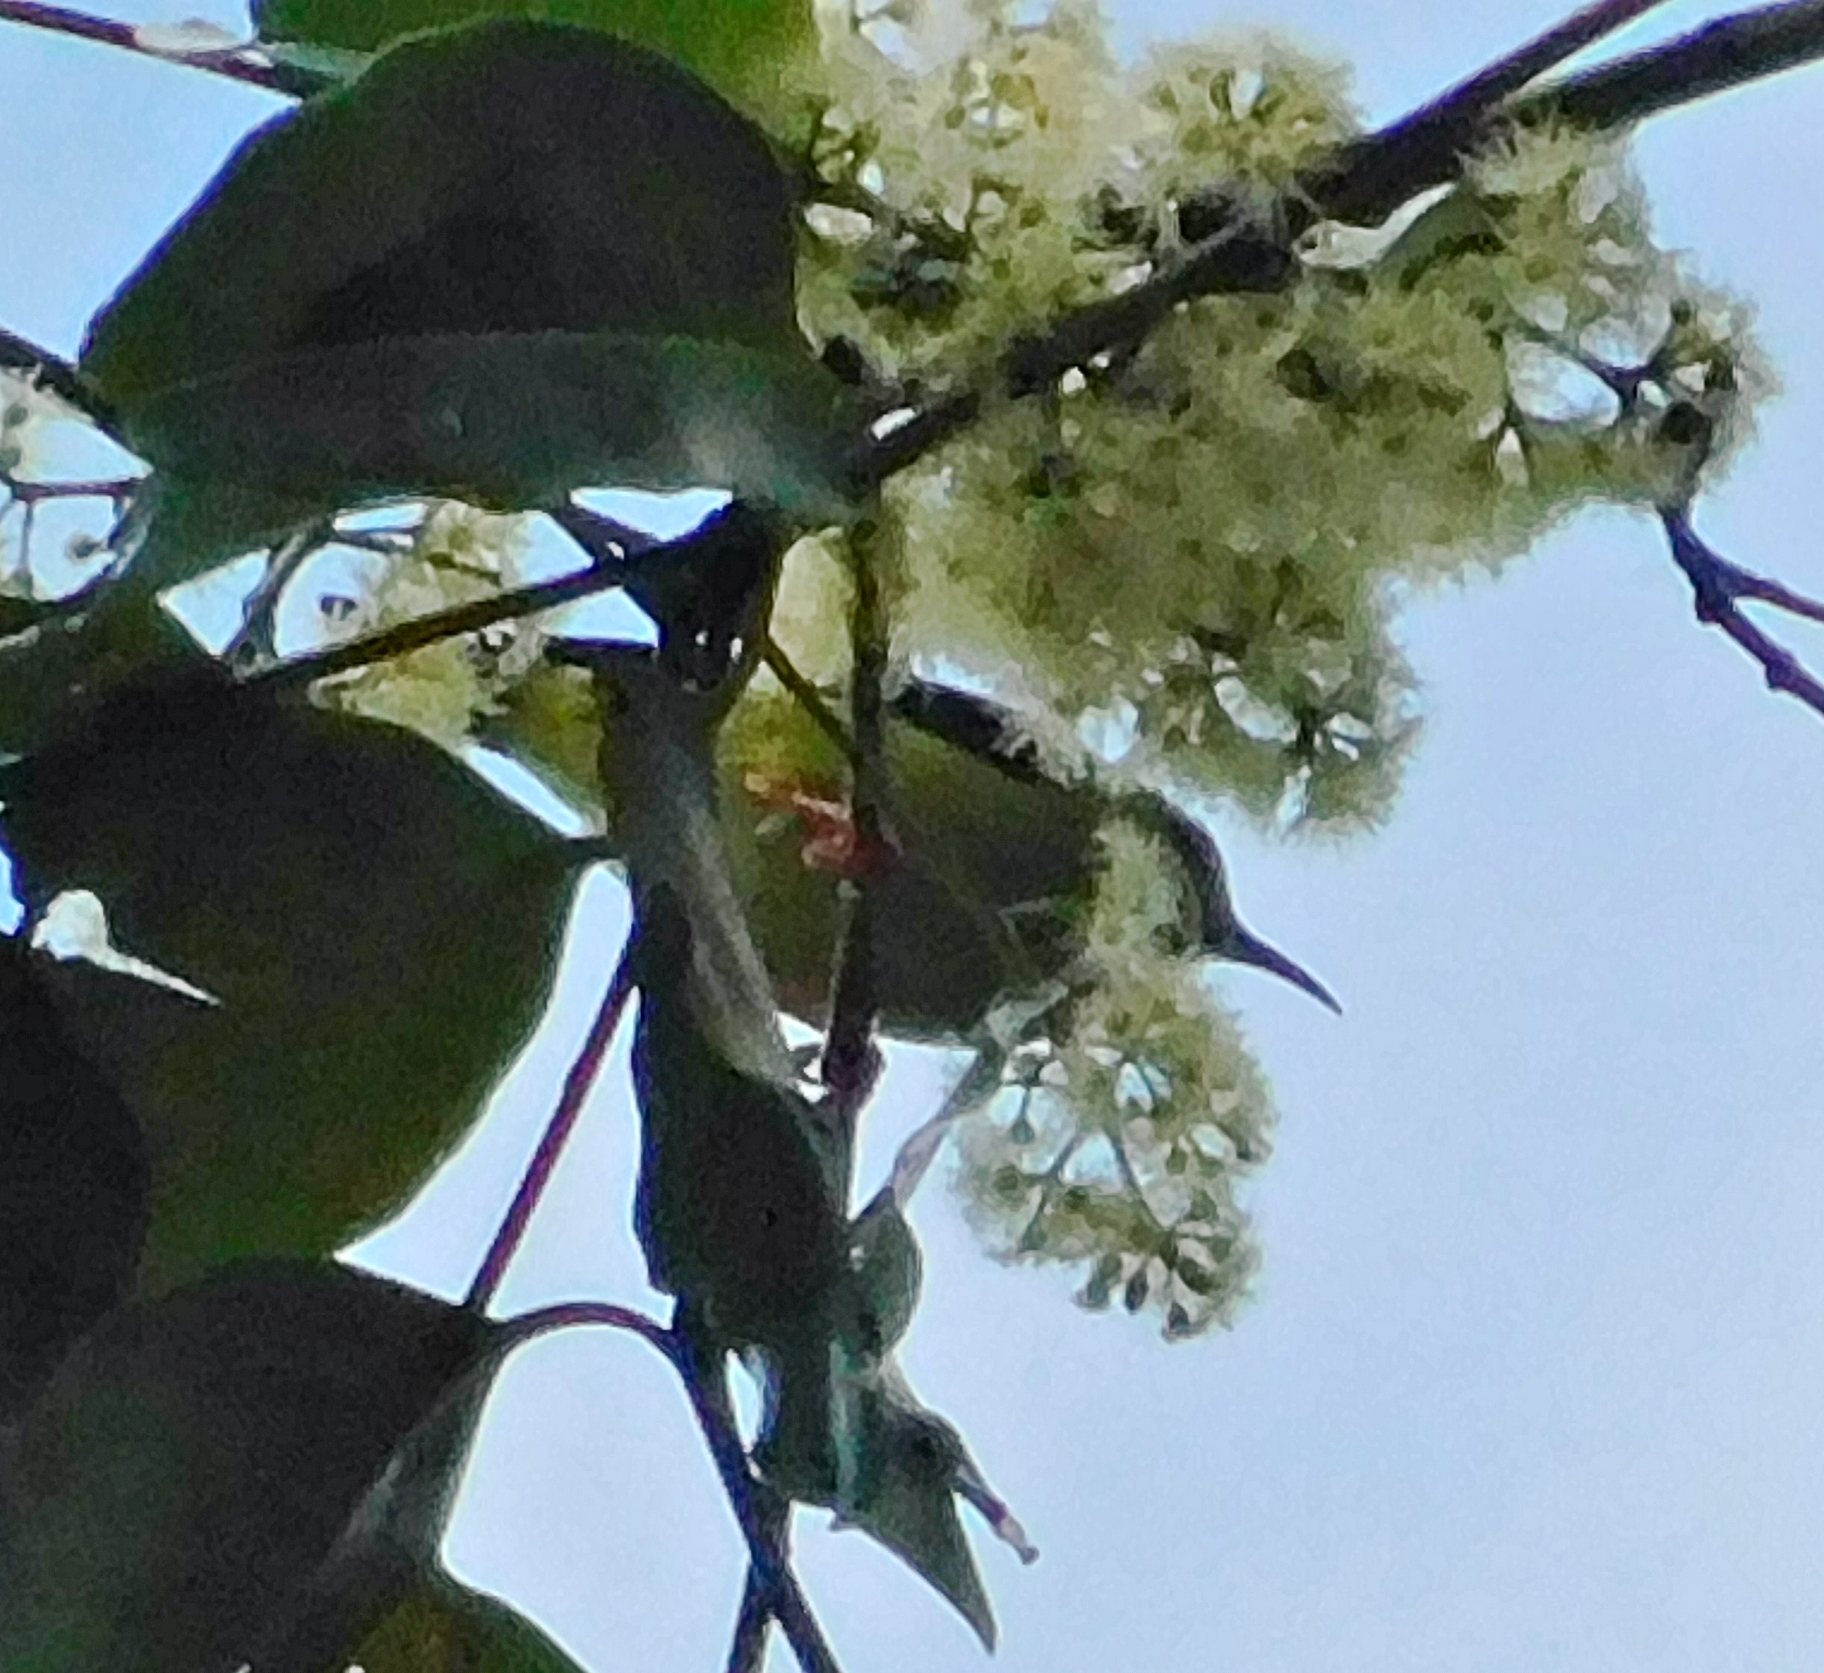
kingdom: Animalia
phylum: Chordata
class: Aves
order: Passeriformes
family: Thraupidae
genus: Cyanerpes
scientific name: Cyanerpes cyaneus
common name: Red-legged honeycreeper
